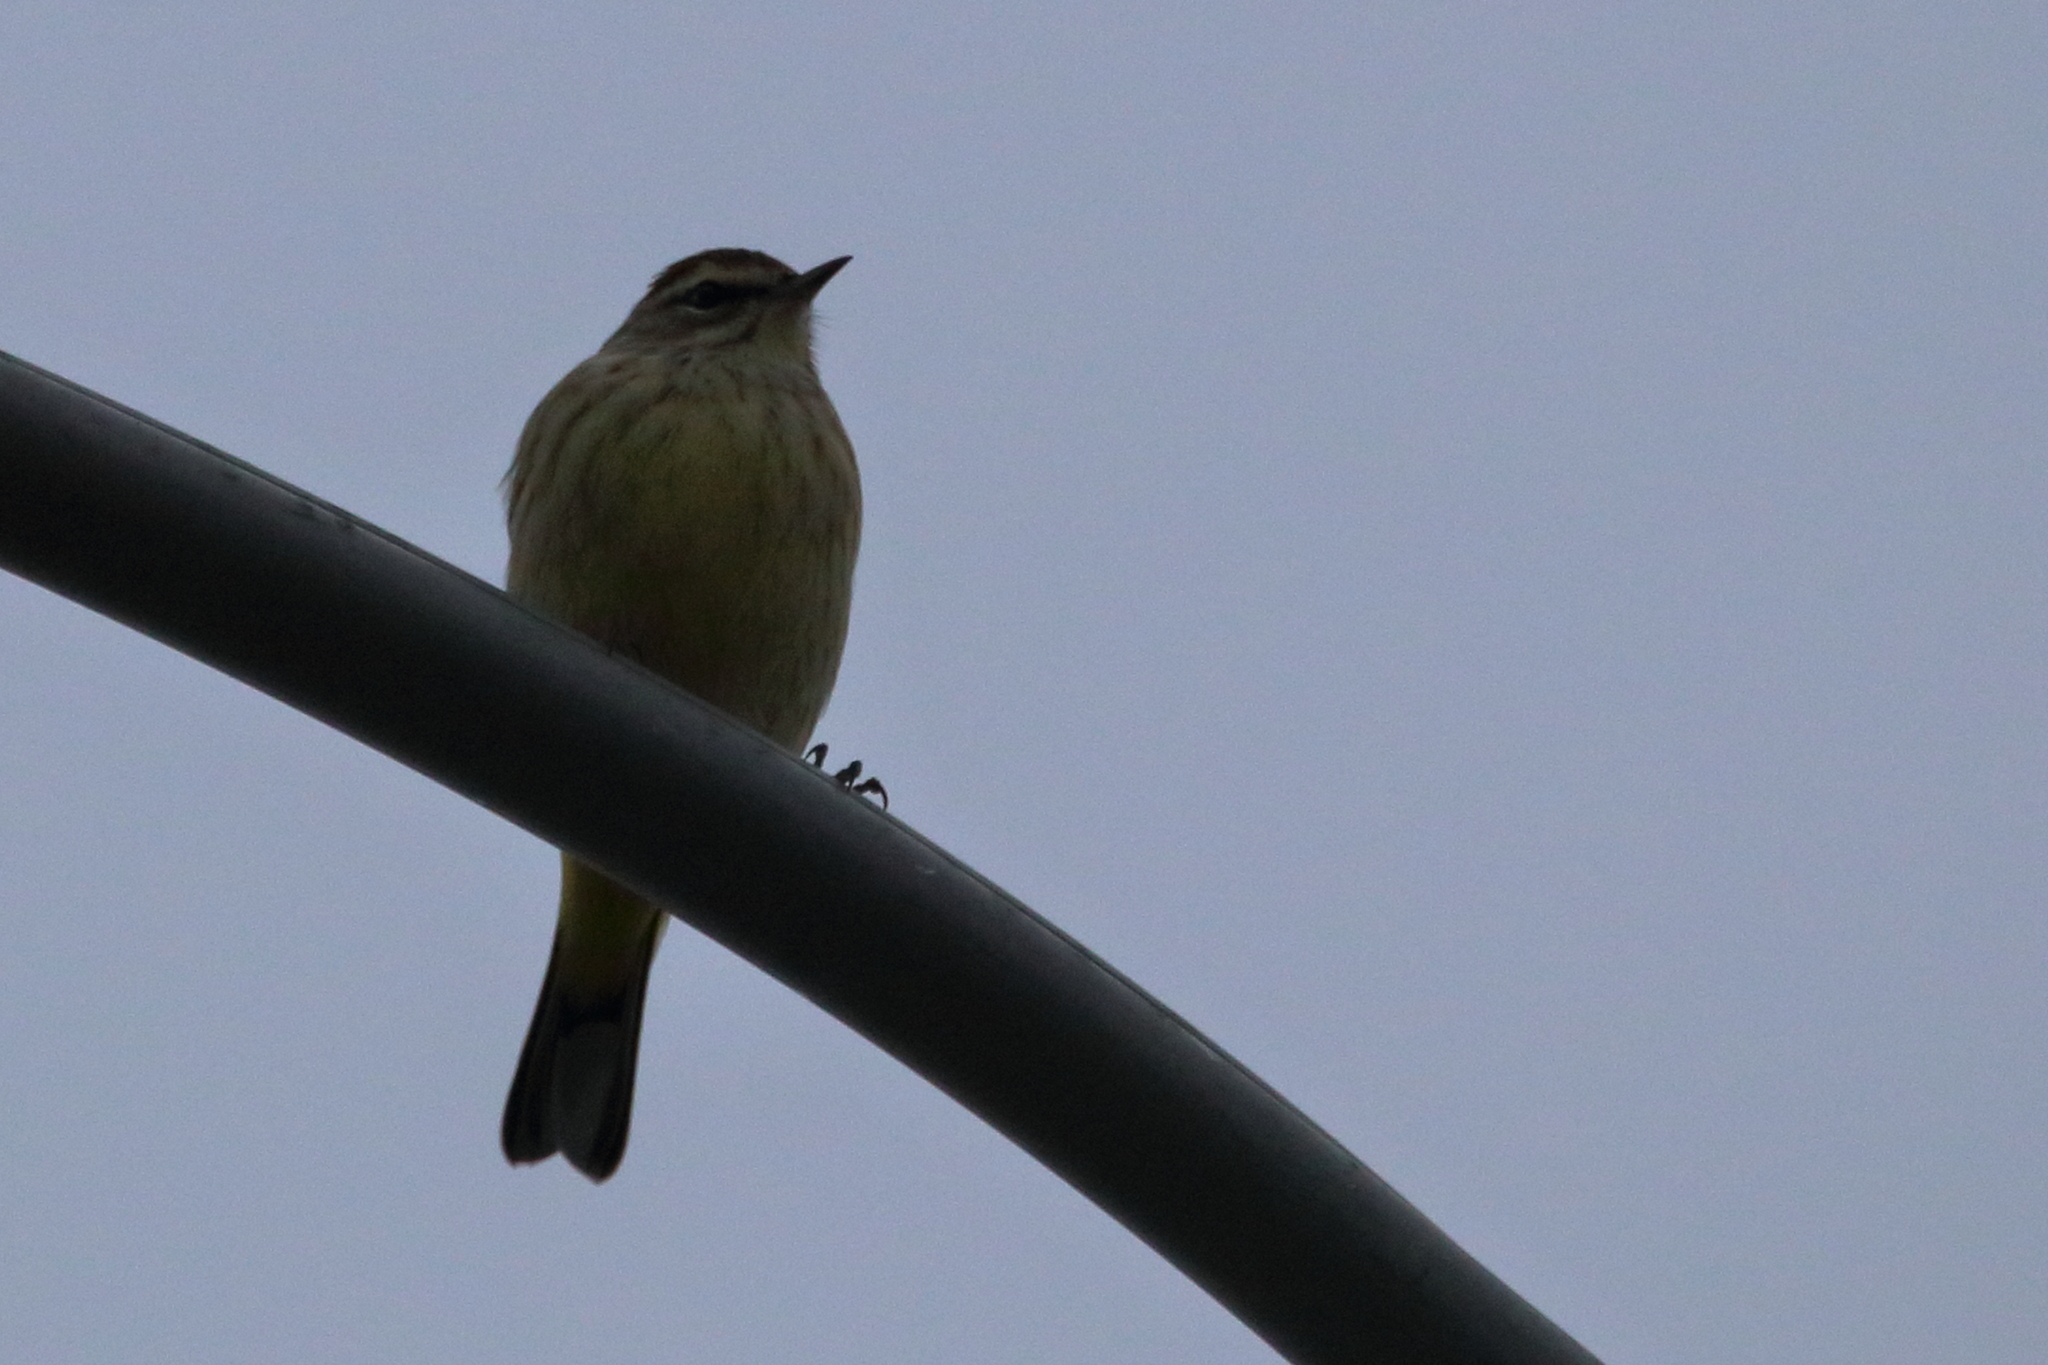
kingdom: Animalia
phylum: Chordata
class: Aves
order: Passeriformes
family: Parulidae
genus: Setophaga
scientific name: Setophaga palmarum
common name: Palm warbler
